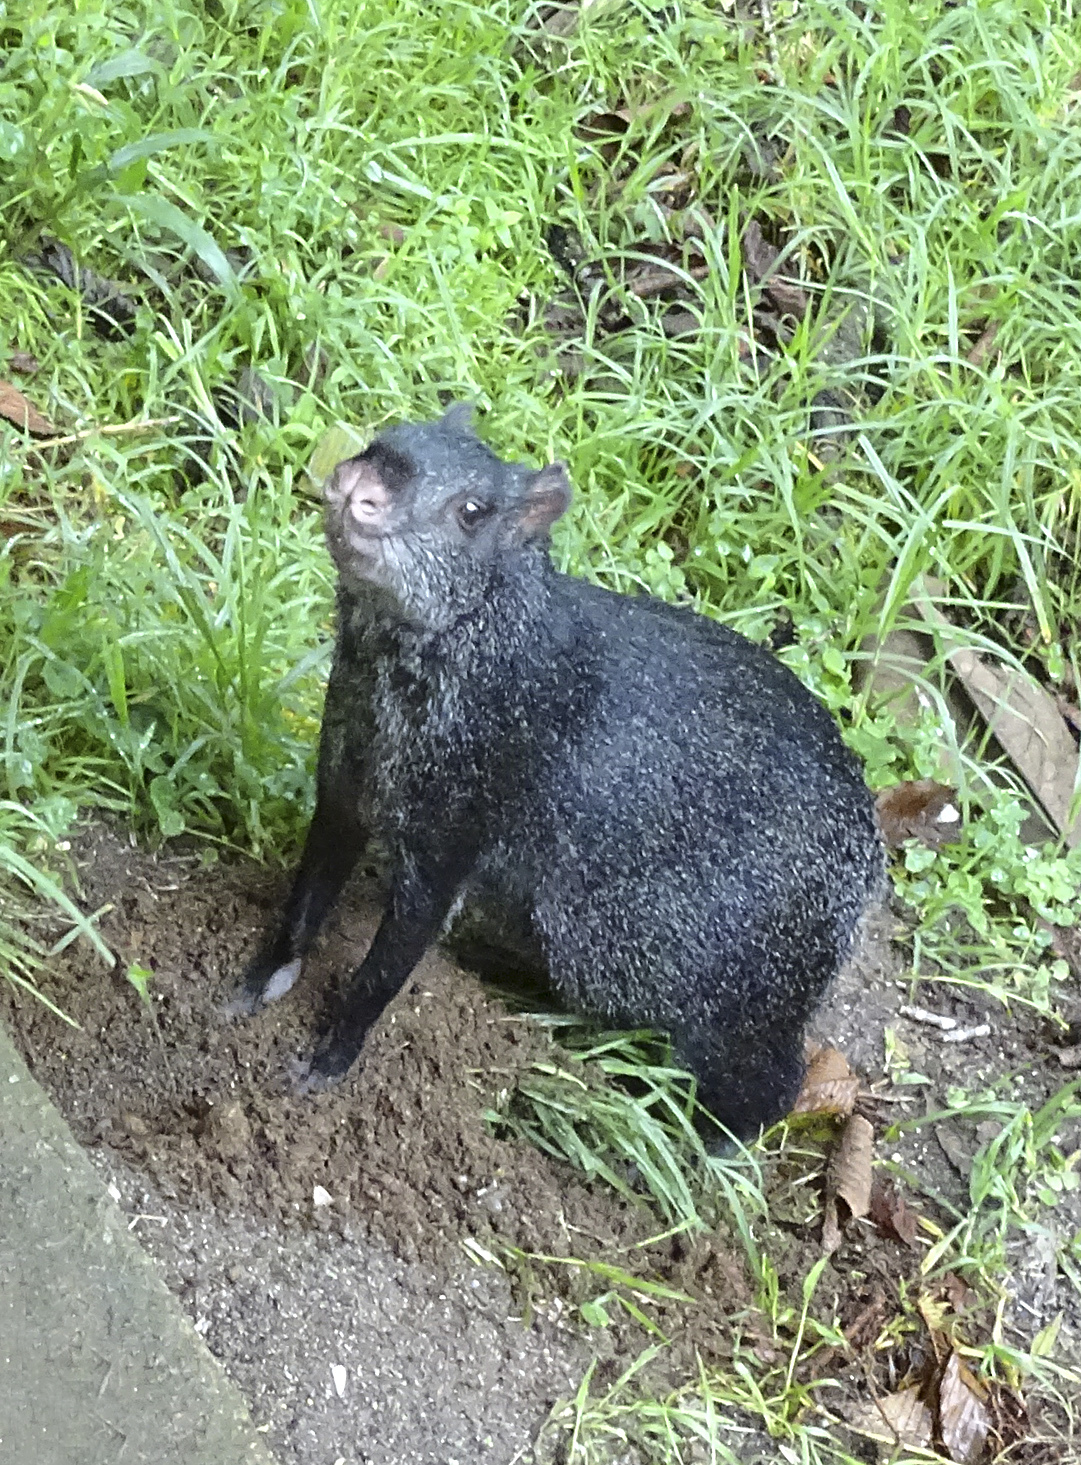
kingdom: Animalia
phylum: Chordata
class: Mammalia
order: Rodentia
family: Dasyproctidae
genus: Dasyprocta
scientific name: Dasyprocta fuliginosa
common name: Black agouti
